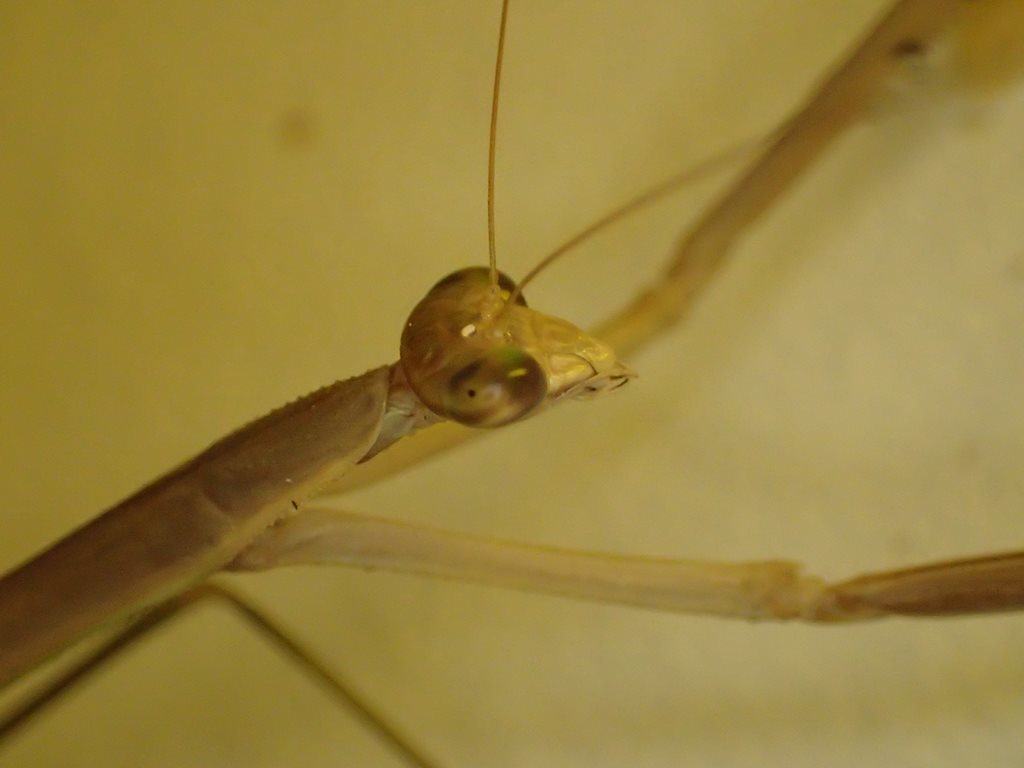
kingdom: Animalia
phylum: Arthropoda
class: Insecta
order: Mantodea
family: Mantidae
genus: Tenodera
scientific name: Tenodera
